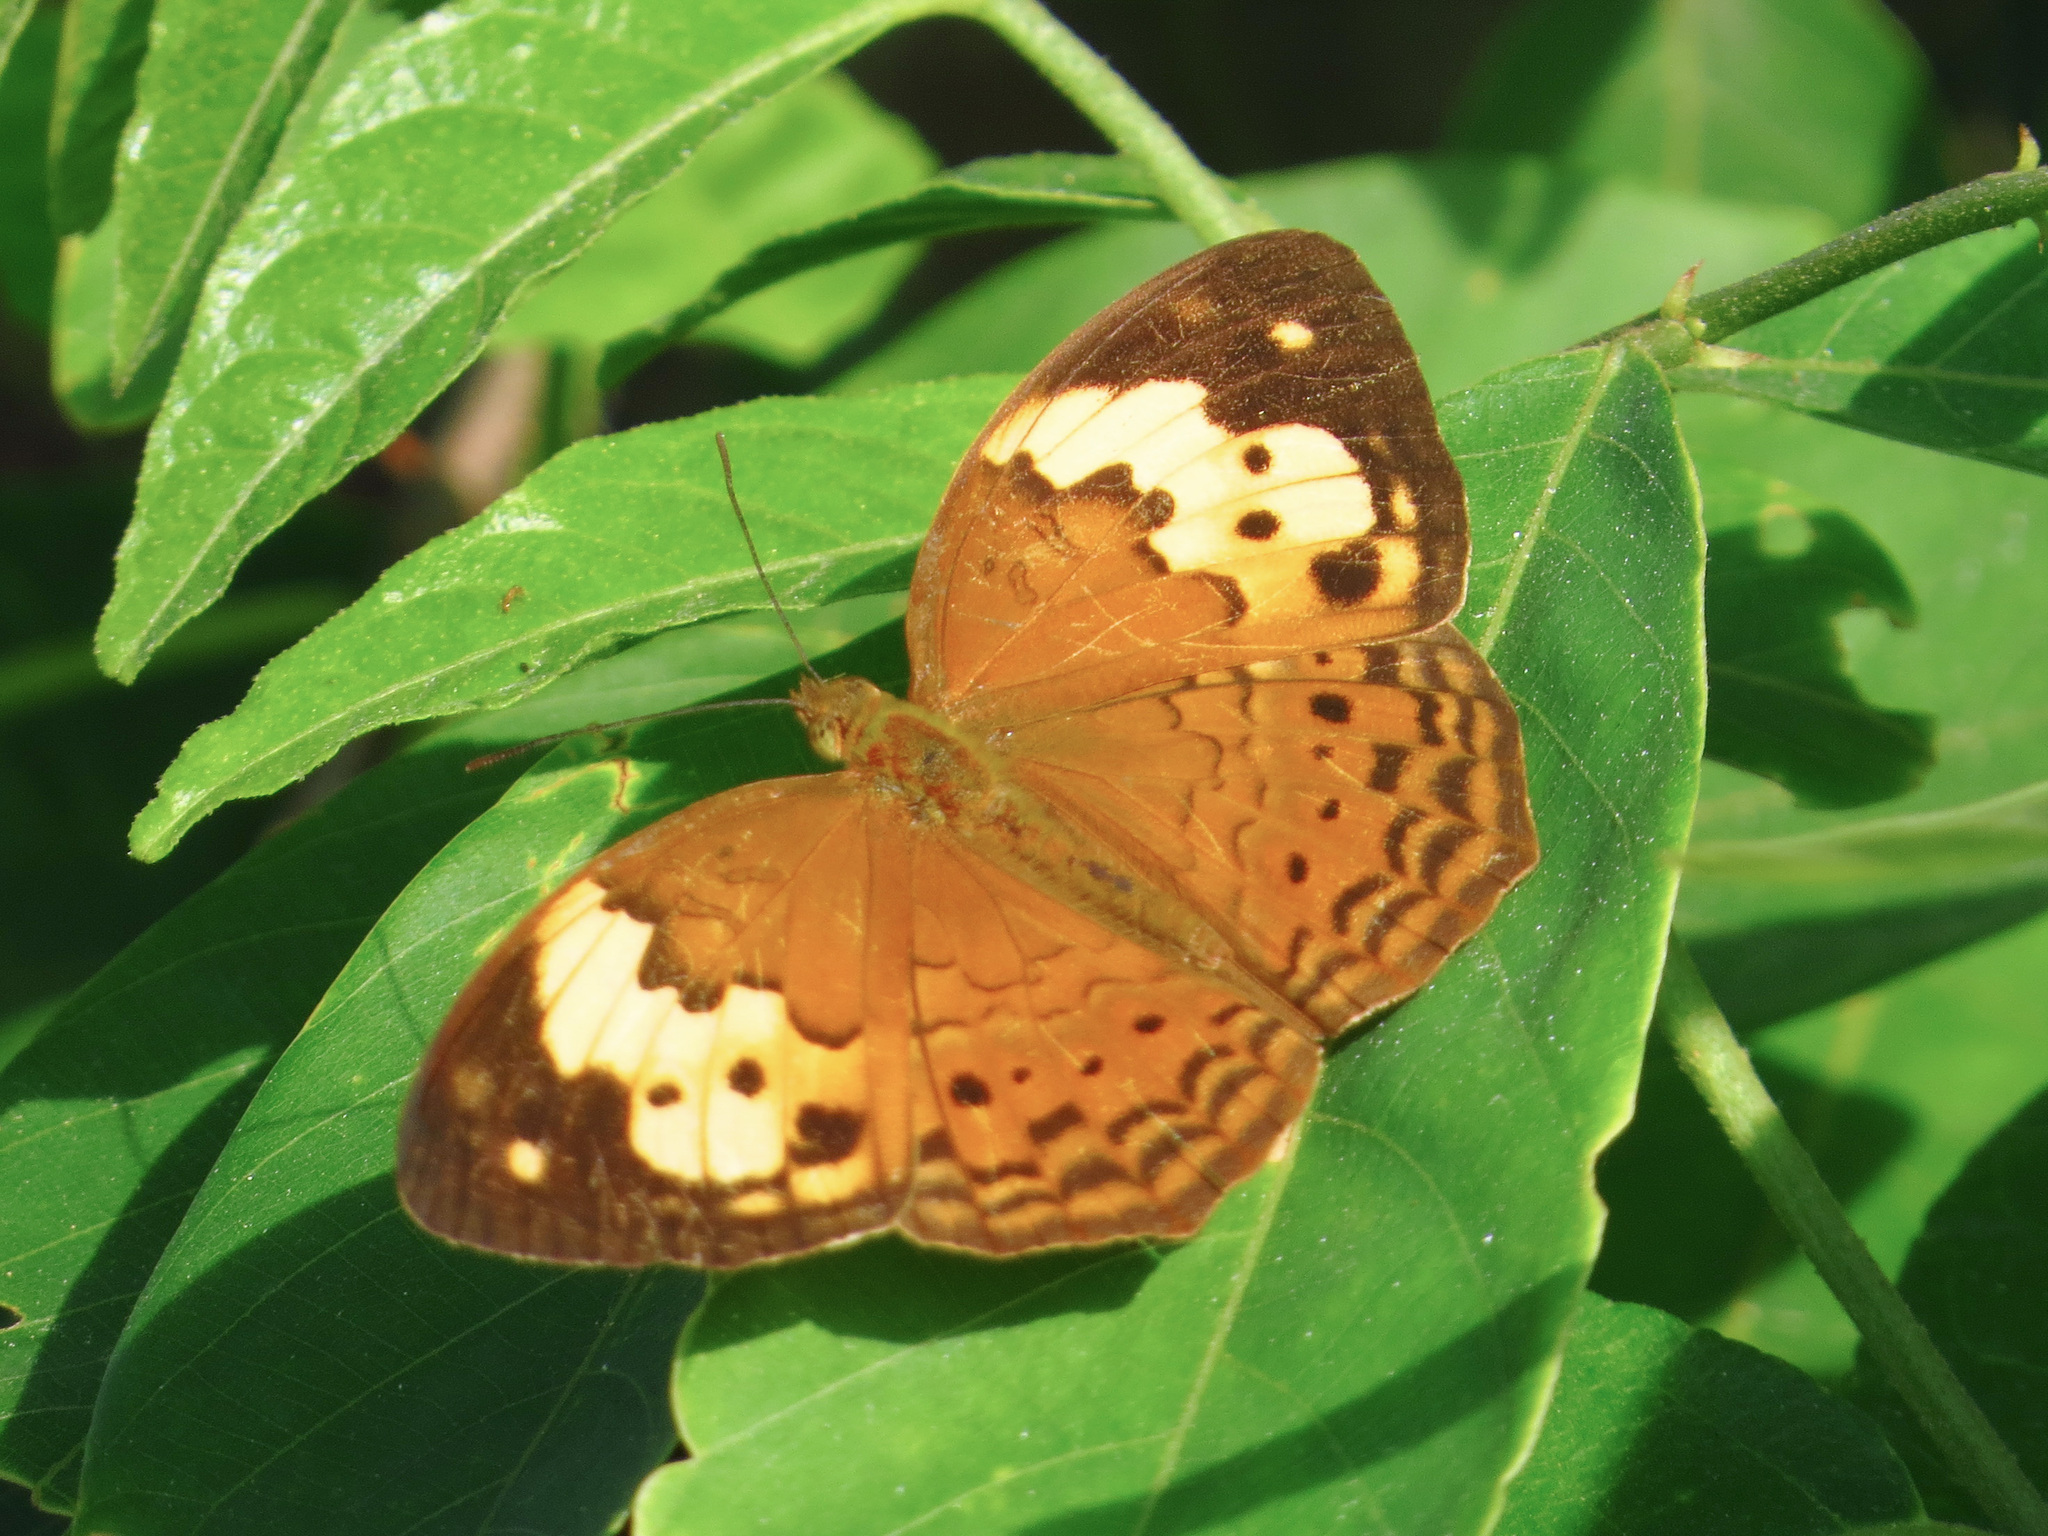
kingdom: Animalia
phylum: Arthropoda
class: Insecta
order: Lepidoptera
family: Nymphalidae
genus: Cupha
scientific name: Cupha erymanthis
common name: Rustic
